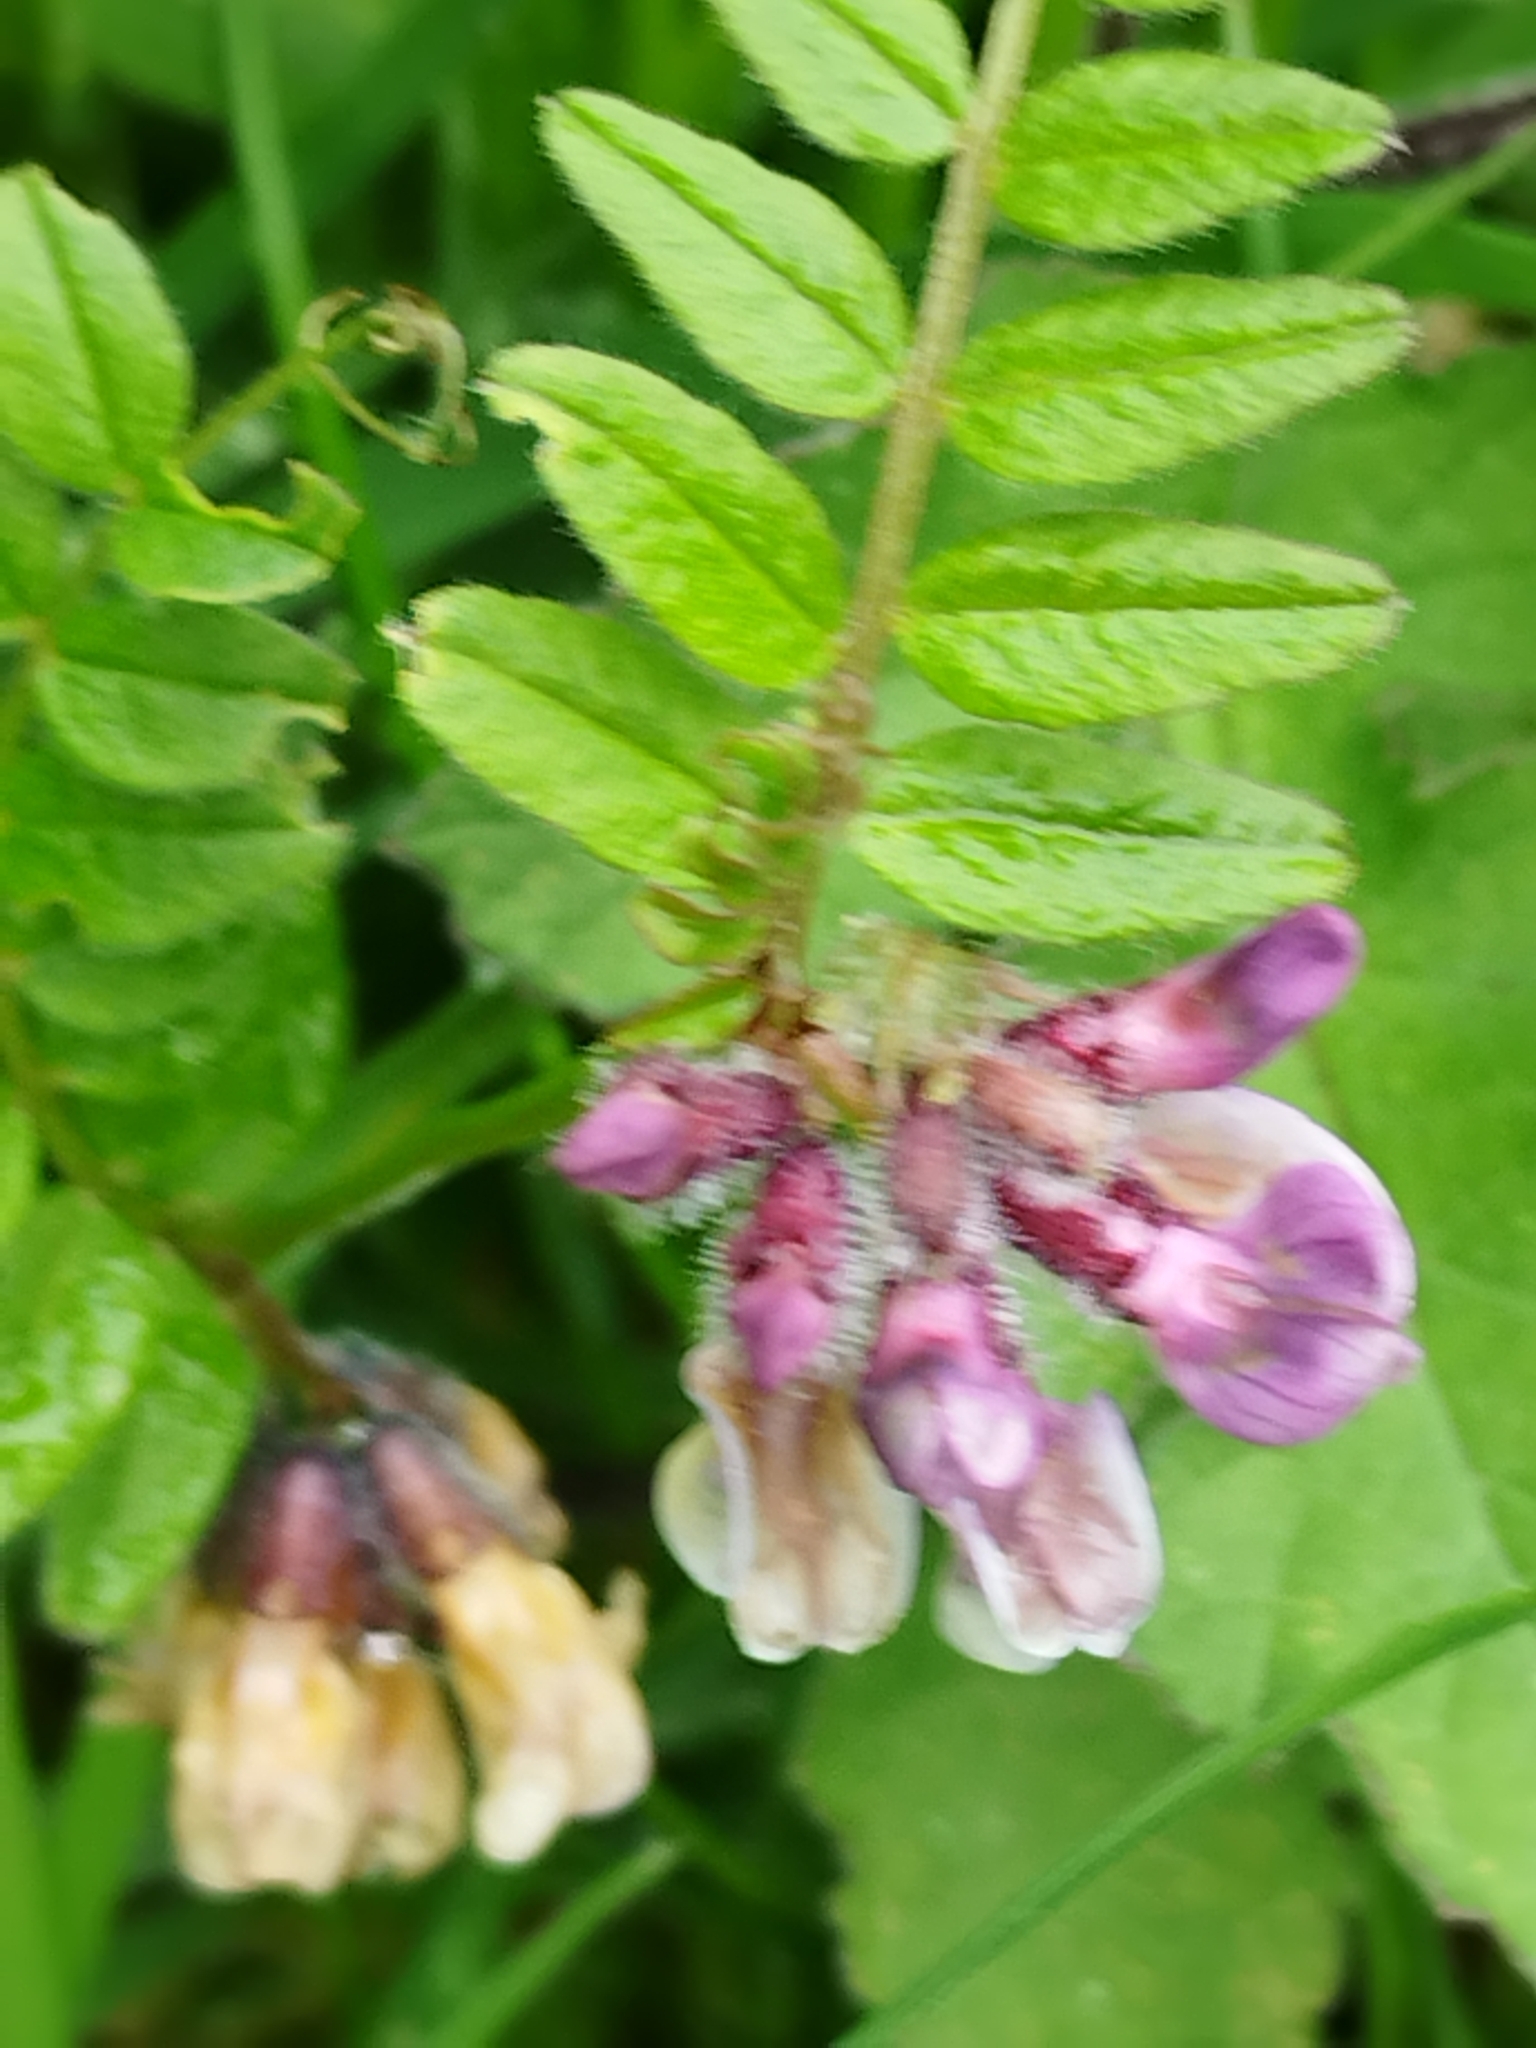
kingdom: Plantae
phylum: Tracheophyta
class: Magnoliopsida
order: Fabales
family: Fabaceae
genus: Vicia
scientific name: Vicia sepium
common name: Bush vetch
